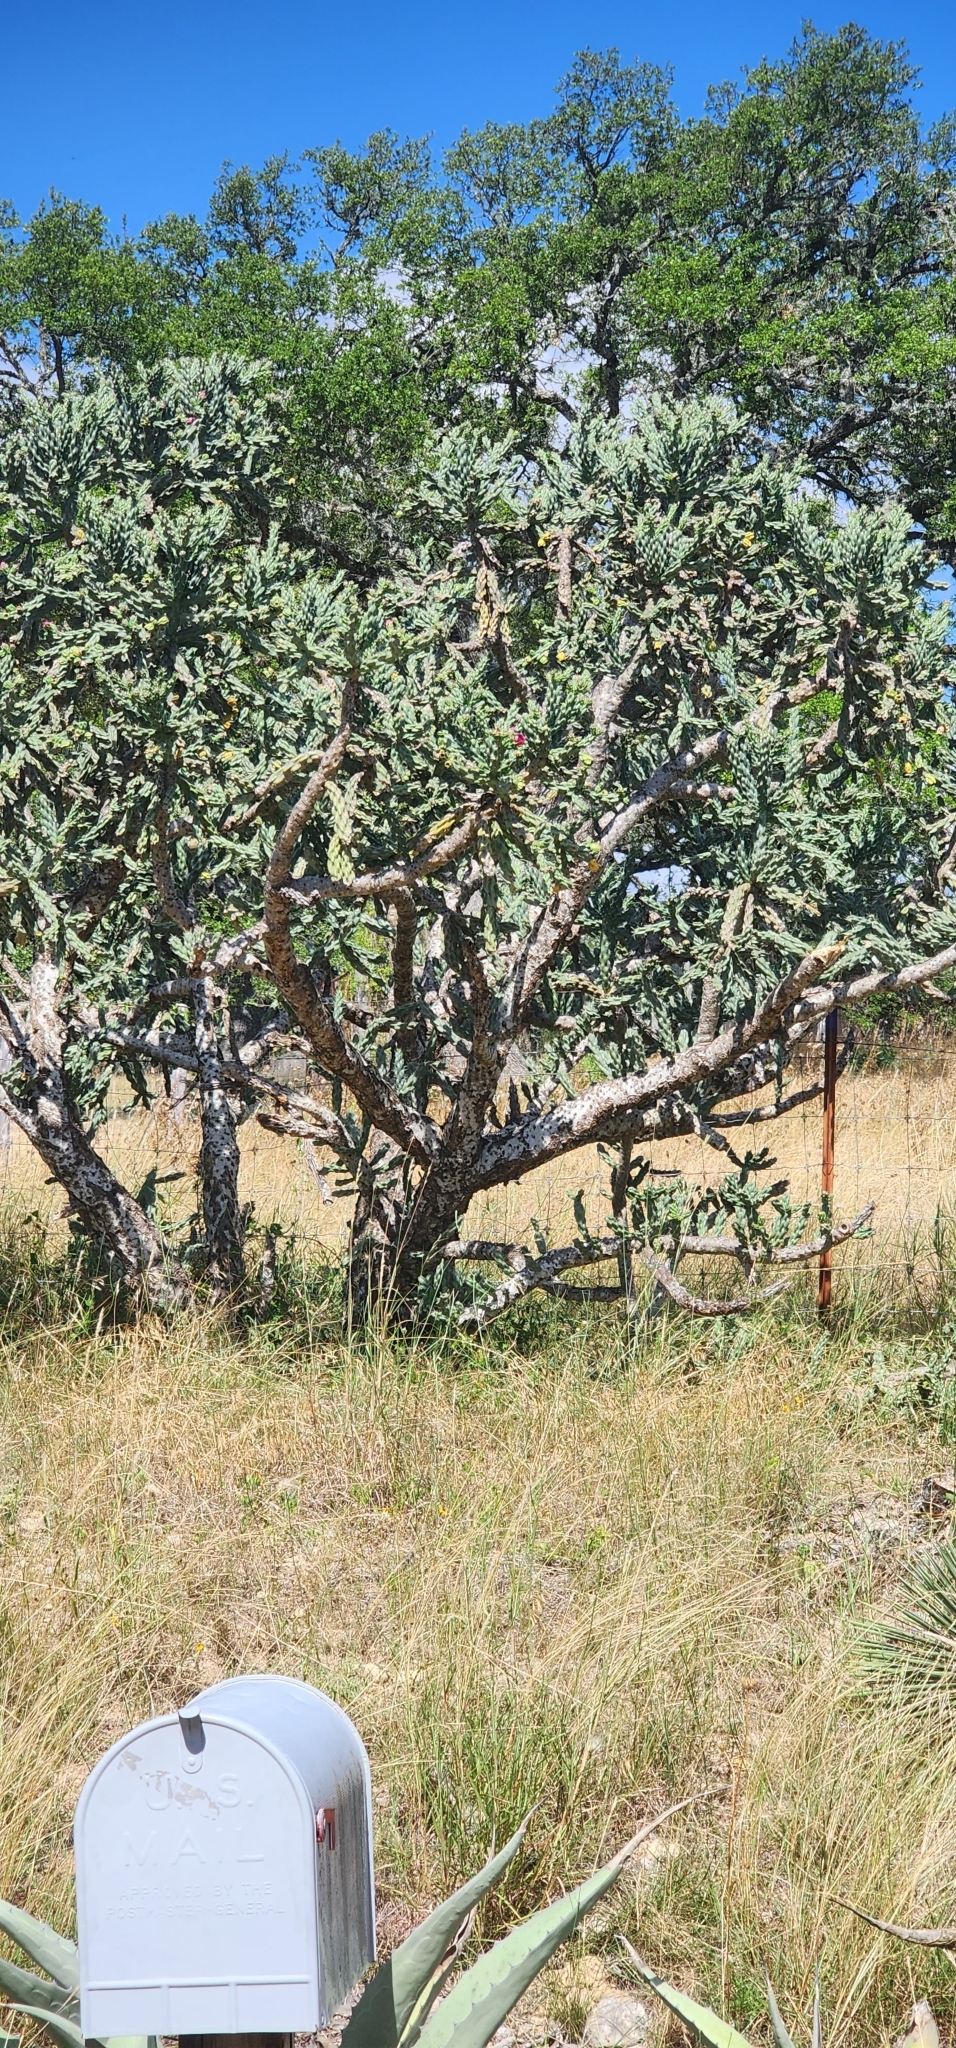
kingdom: Plantae
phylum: Tracheophyta
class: Magnoliopsida
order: Caryophyllales
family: Cactaceae
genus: Cylindropuntia
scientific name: Cylindropuntia imbricata
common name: Candelabrum cactus
